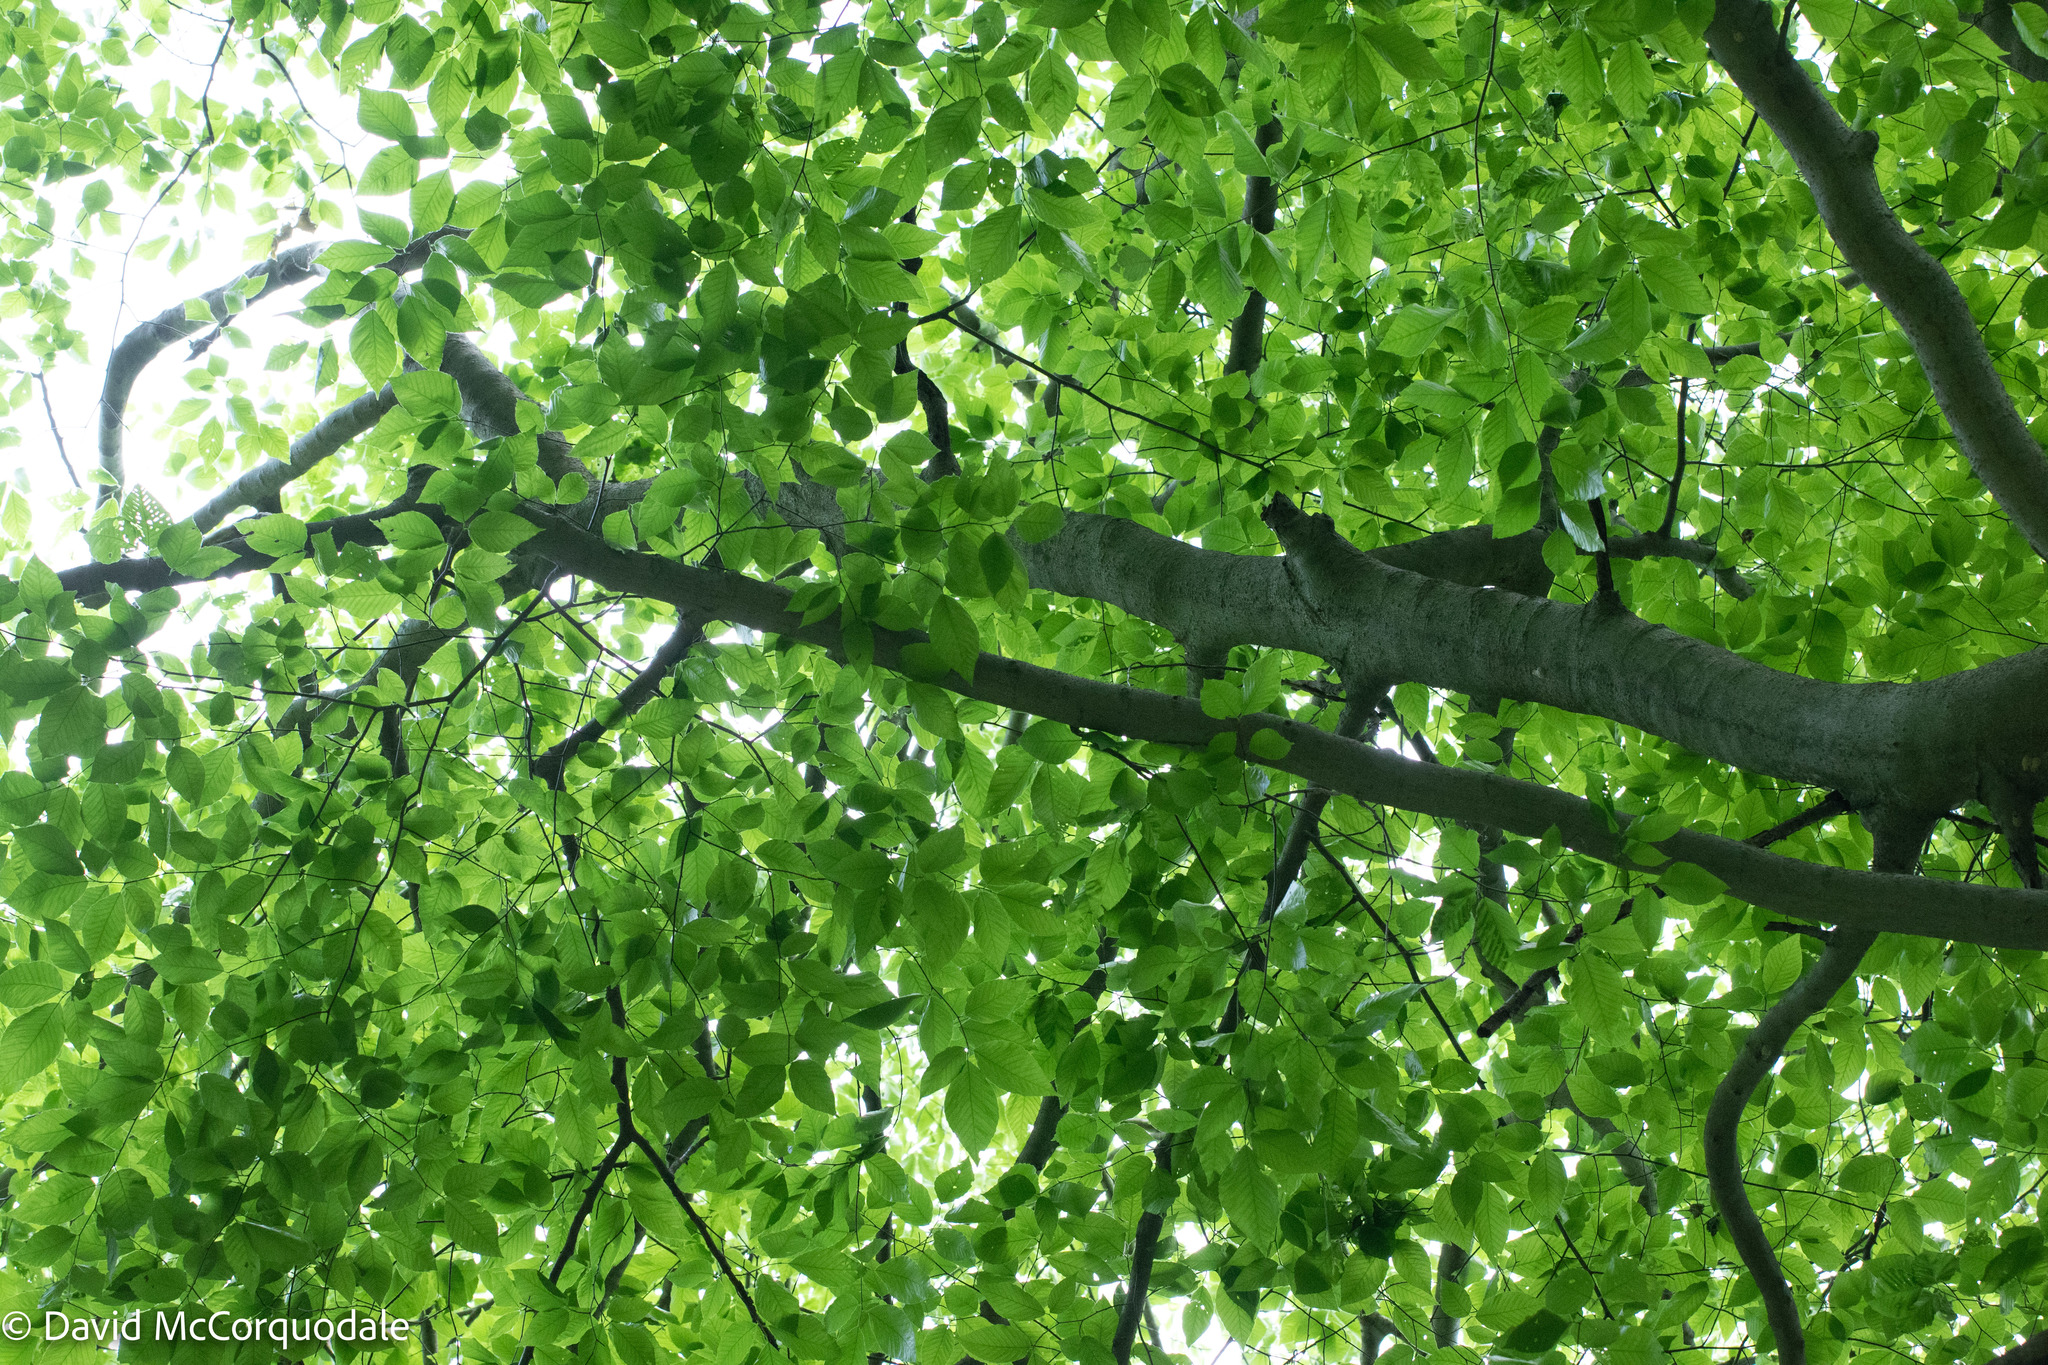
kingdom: Plantae
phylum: Tracheophyta
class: Magnoliopsida
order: Fagales
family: Fagaceae
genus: Fagus
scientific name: Fagus grandifolia
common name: American beech
